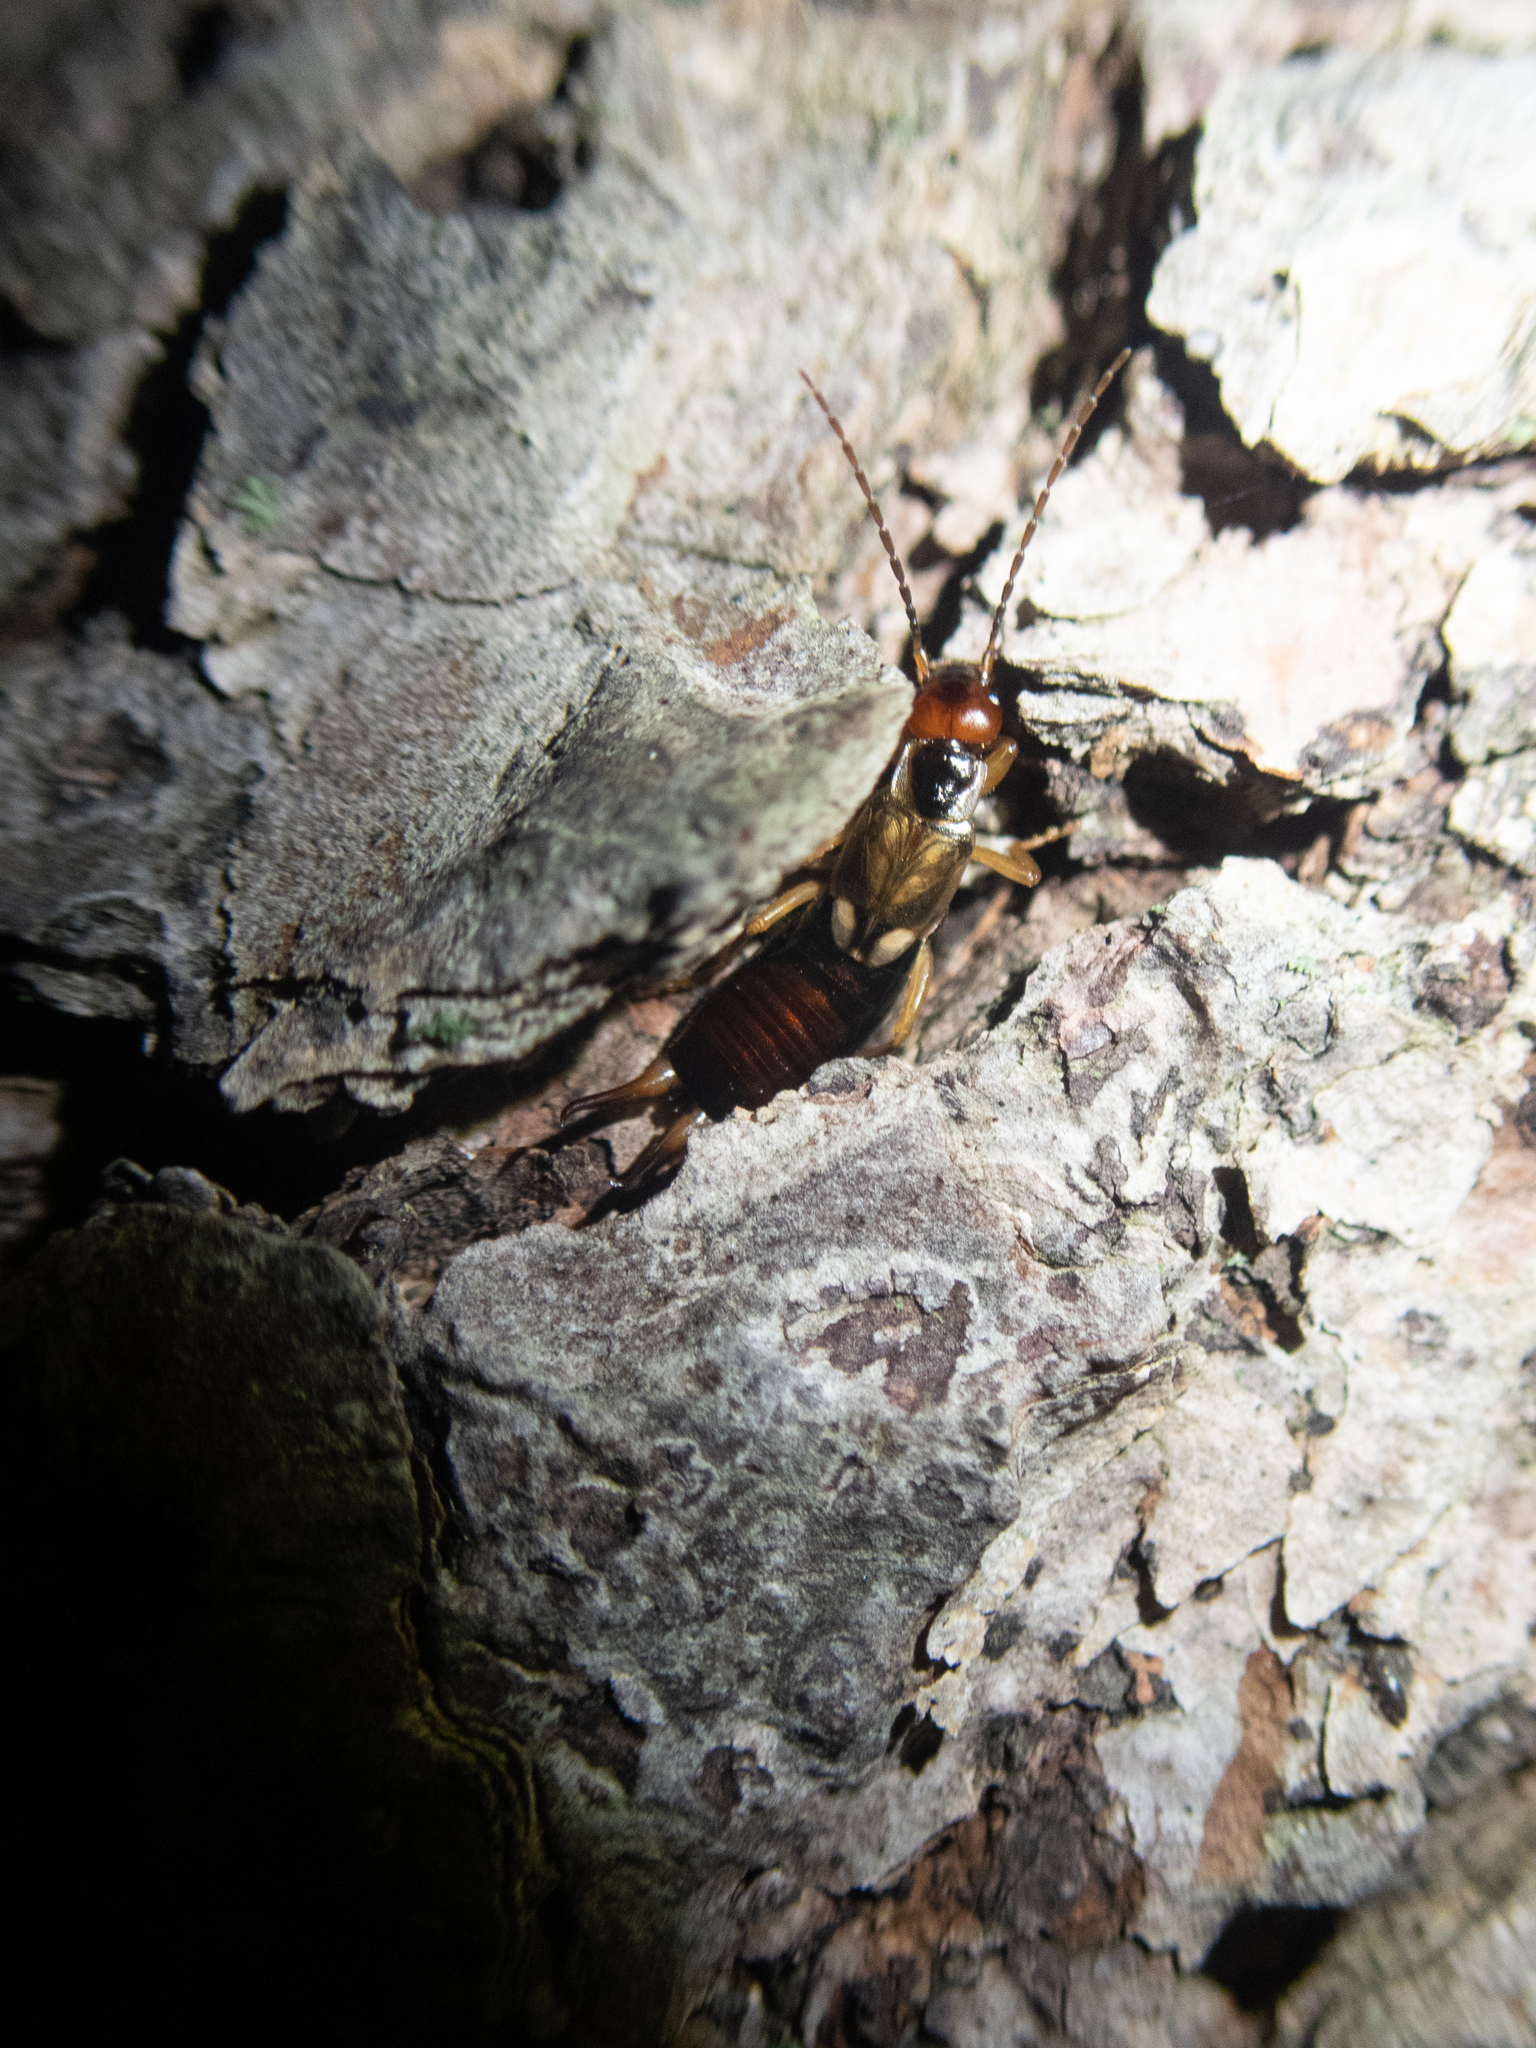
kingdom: Animalia
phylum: Arthropoda
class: Insecta
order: Dermaptera
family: Forficulidae
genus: Forficula
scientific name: Forficula
